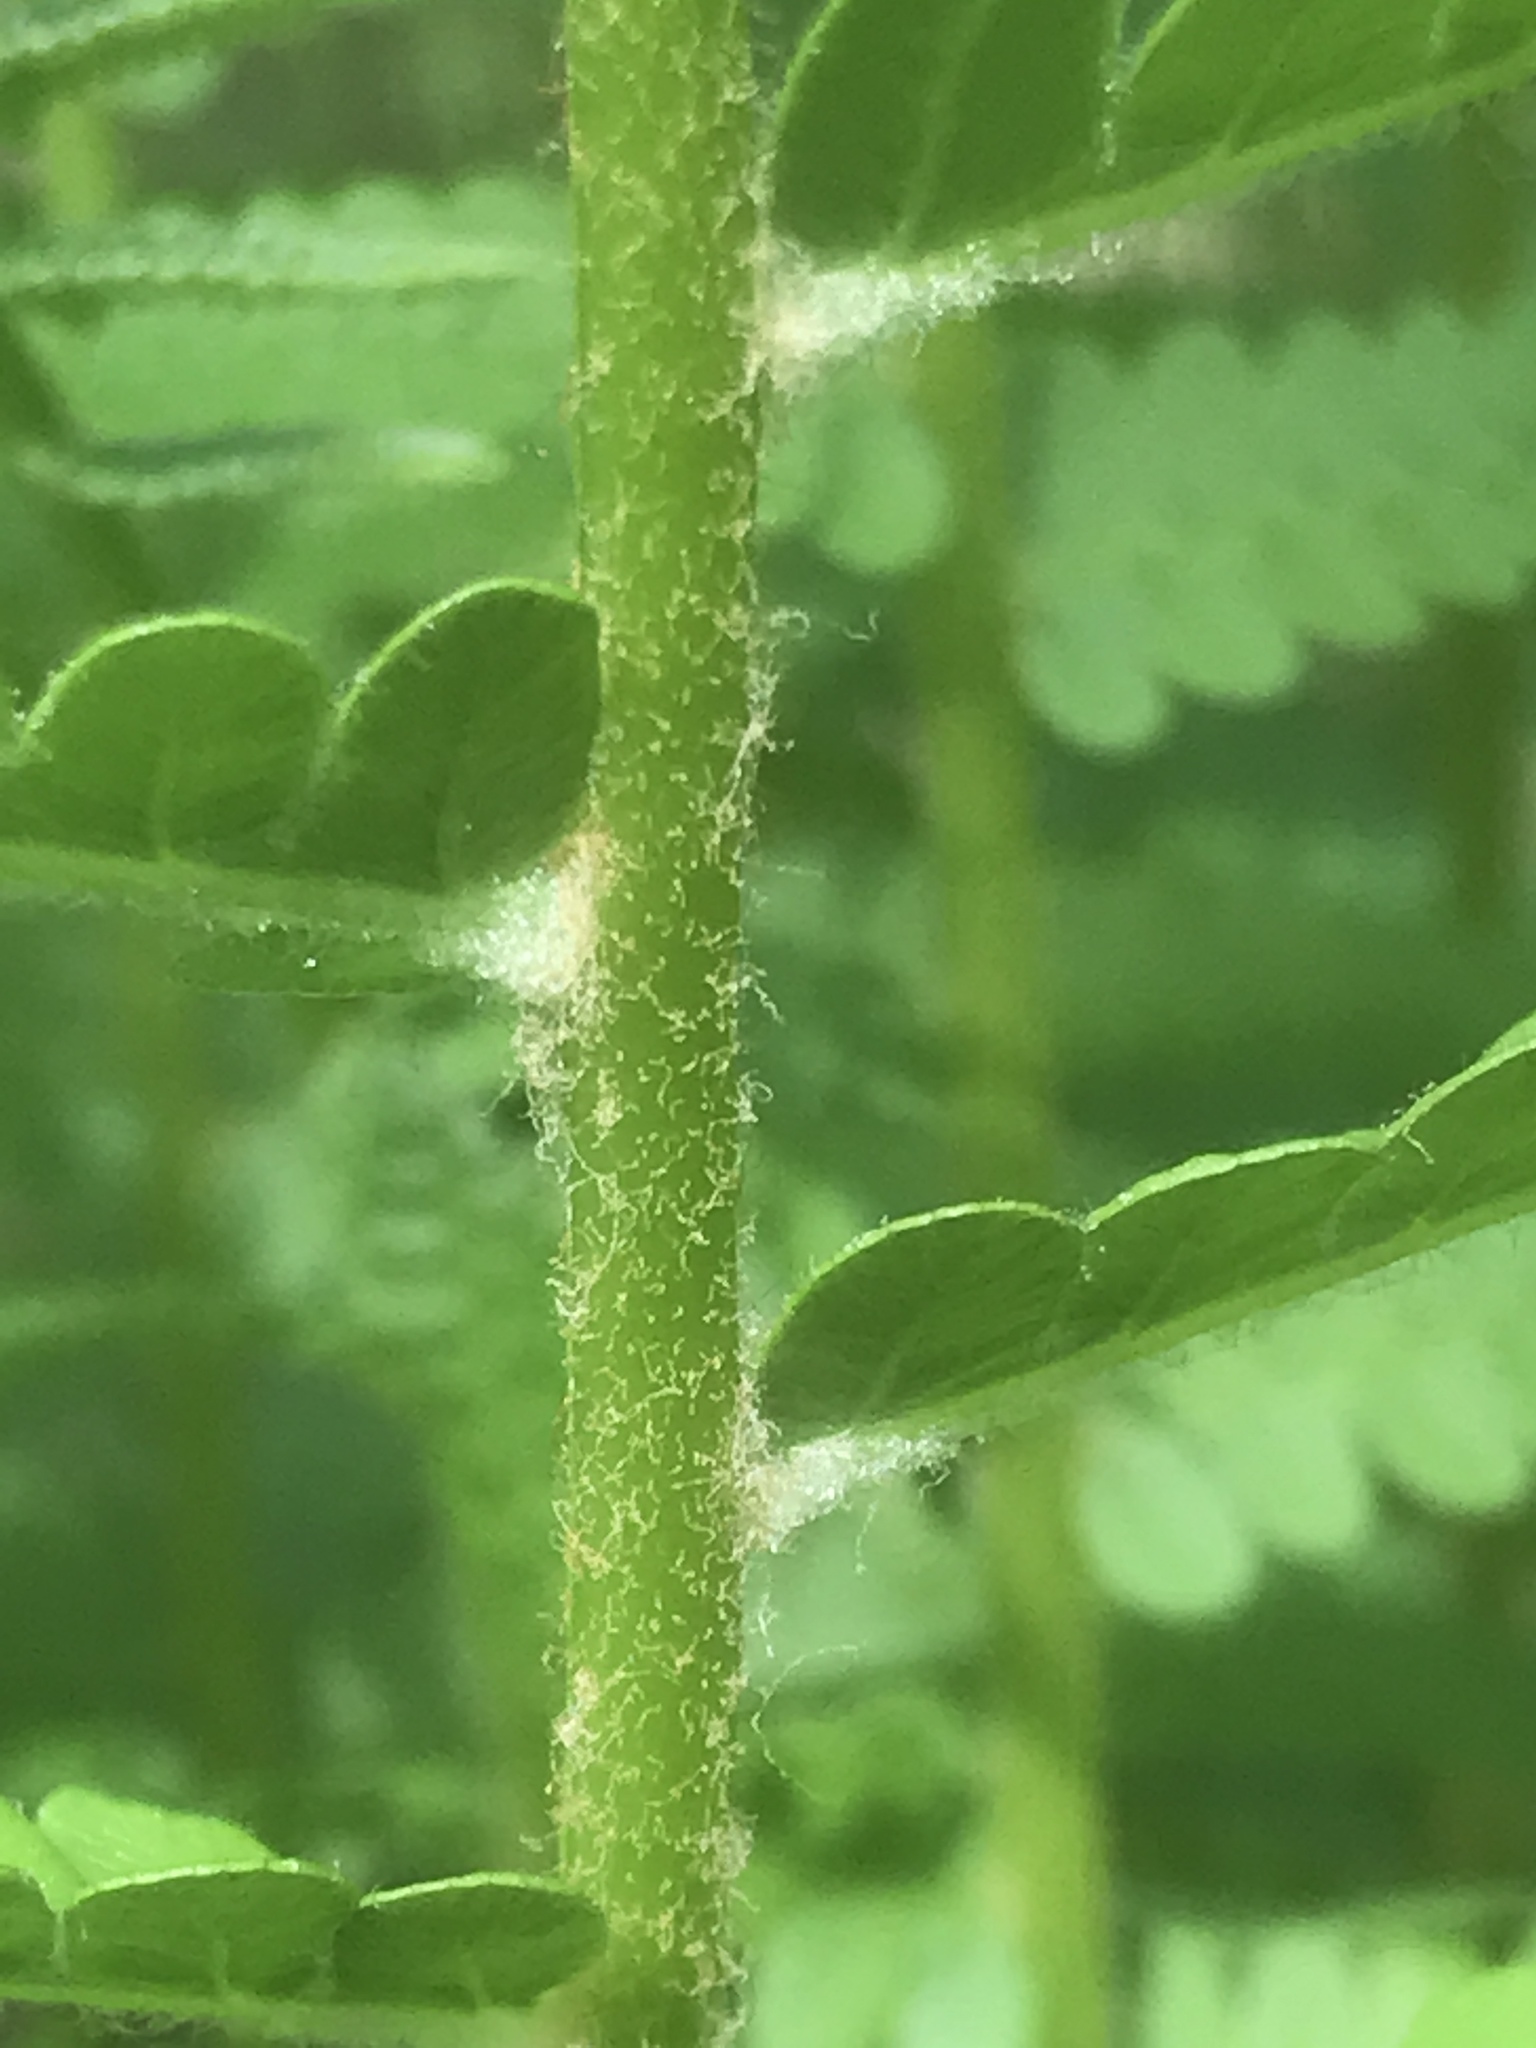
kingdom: Plantae
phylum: Tracheophyta
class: Polypodiopsida
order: Osmundales
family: Osmundaceae
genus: Osmundastrum
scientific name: Osmundastrum cinnamomeum
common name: Cinnamon fern
